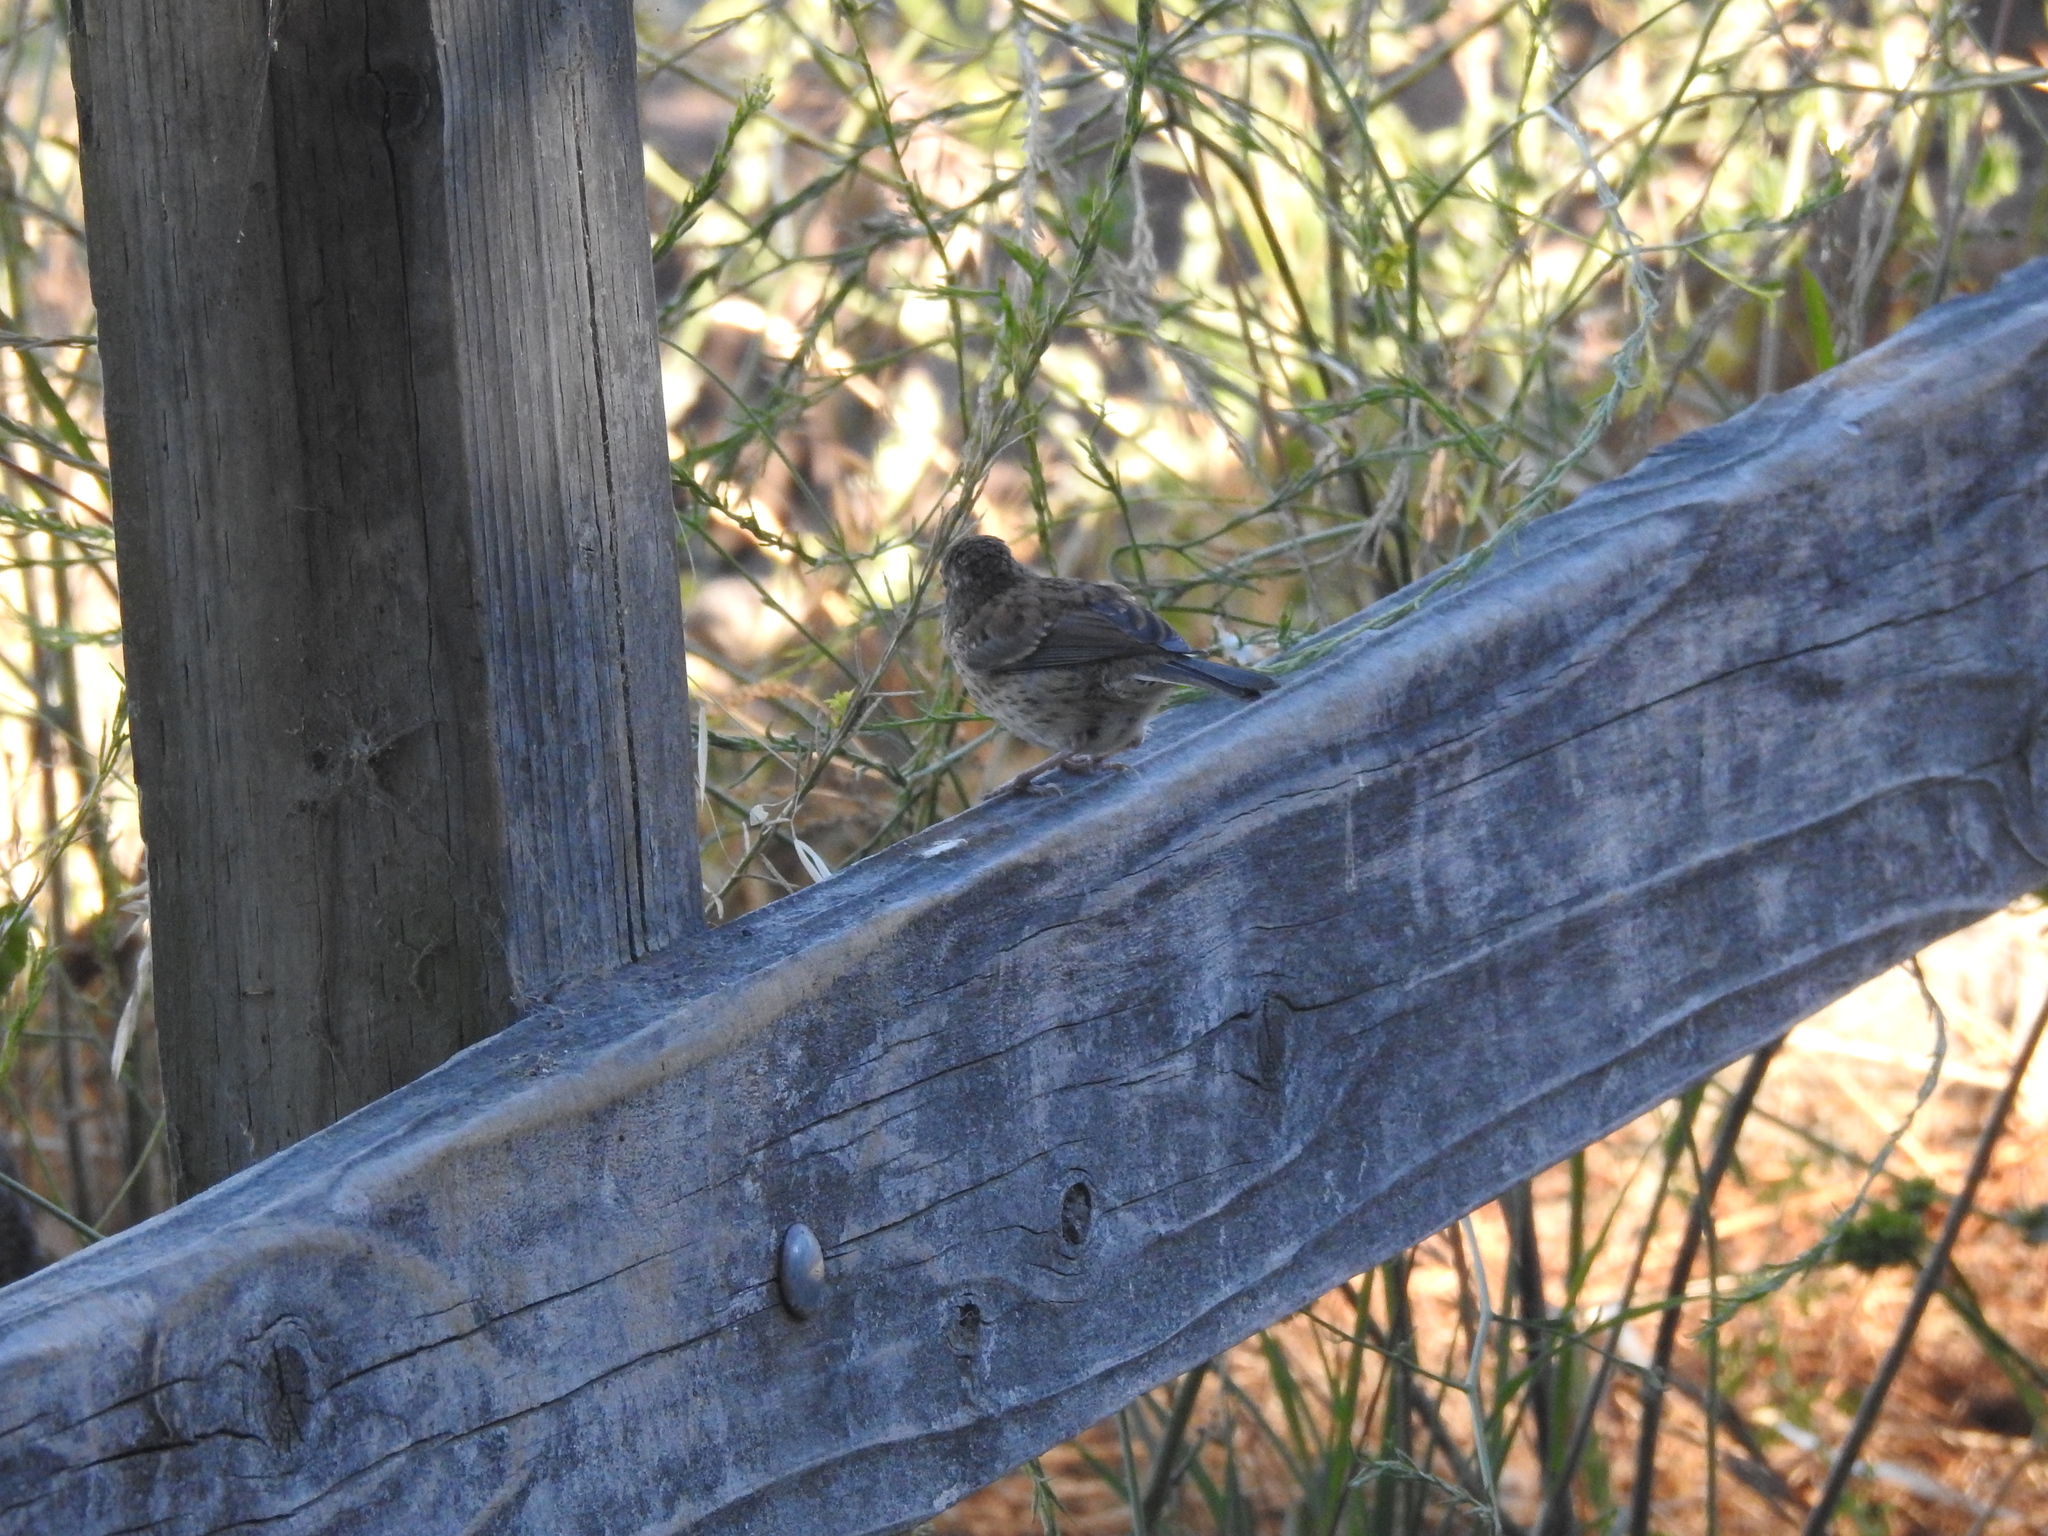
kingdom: Animalia
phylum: Chordata
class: Aves
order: Passeriformes
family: Passerellidae
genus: Junco
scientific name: Junco hyemalis
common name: Dark-eyed junco
